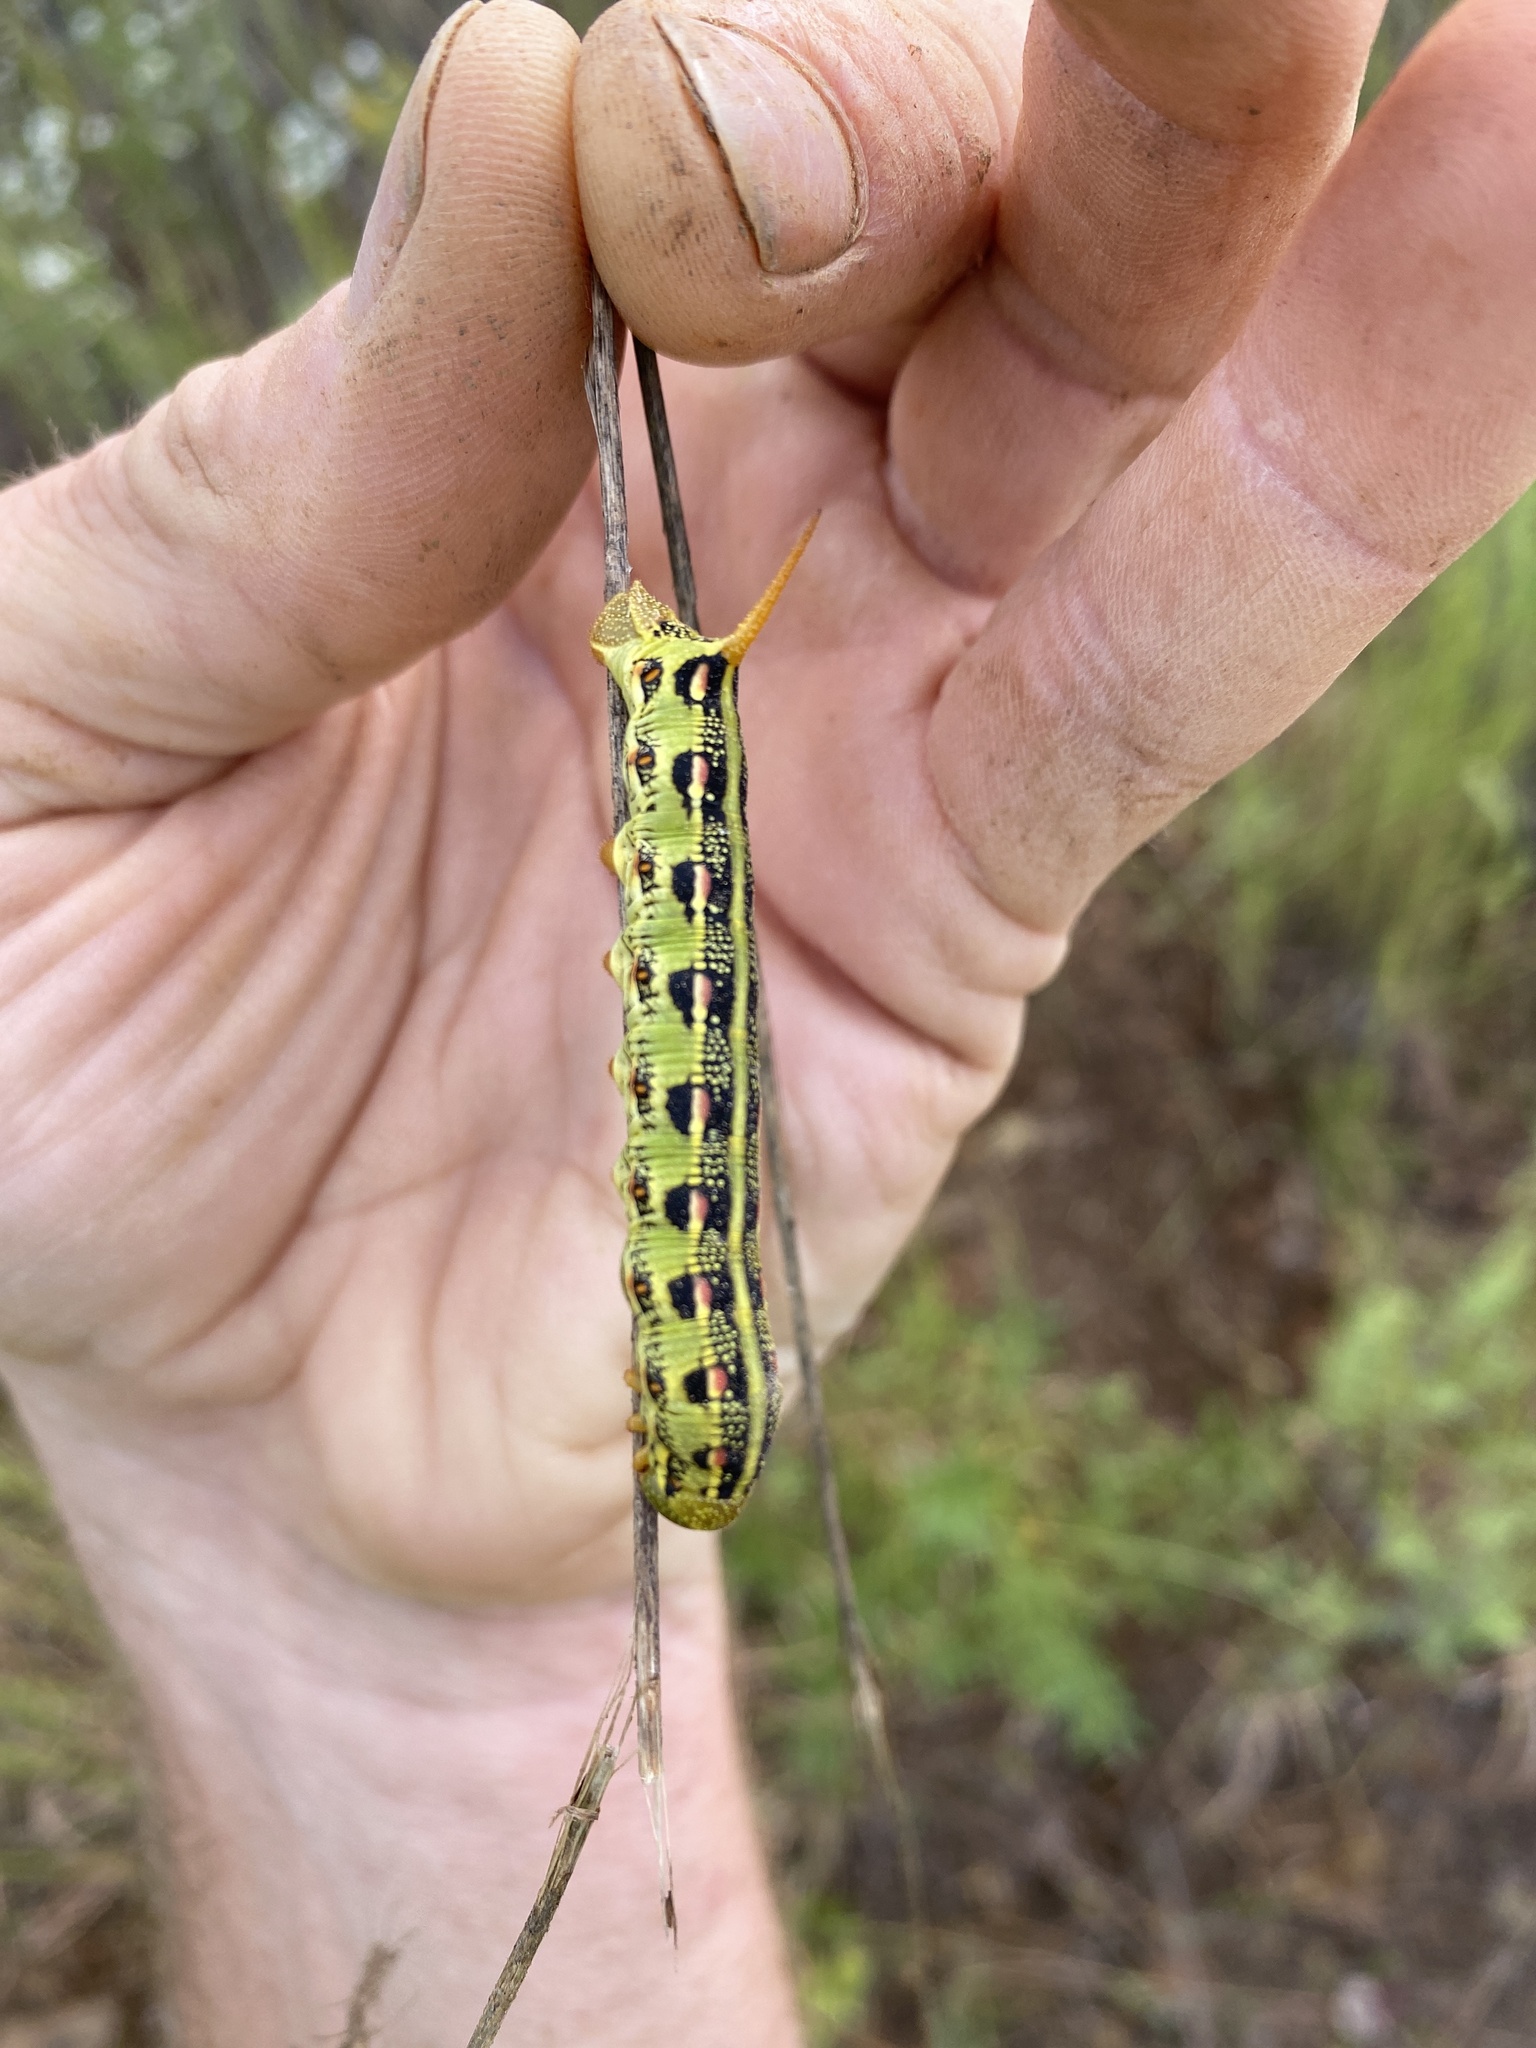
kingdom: Animalia
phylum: Arthropoda
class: Insecta
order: Lepidoptera
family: Sphingidae
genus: Hyles
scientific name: Hyles lineata
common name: White-lined sphinx
